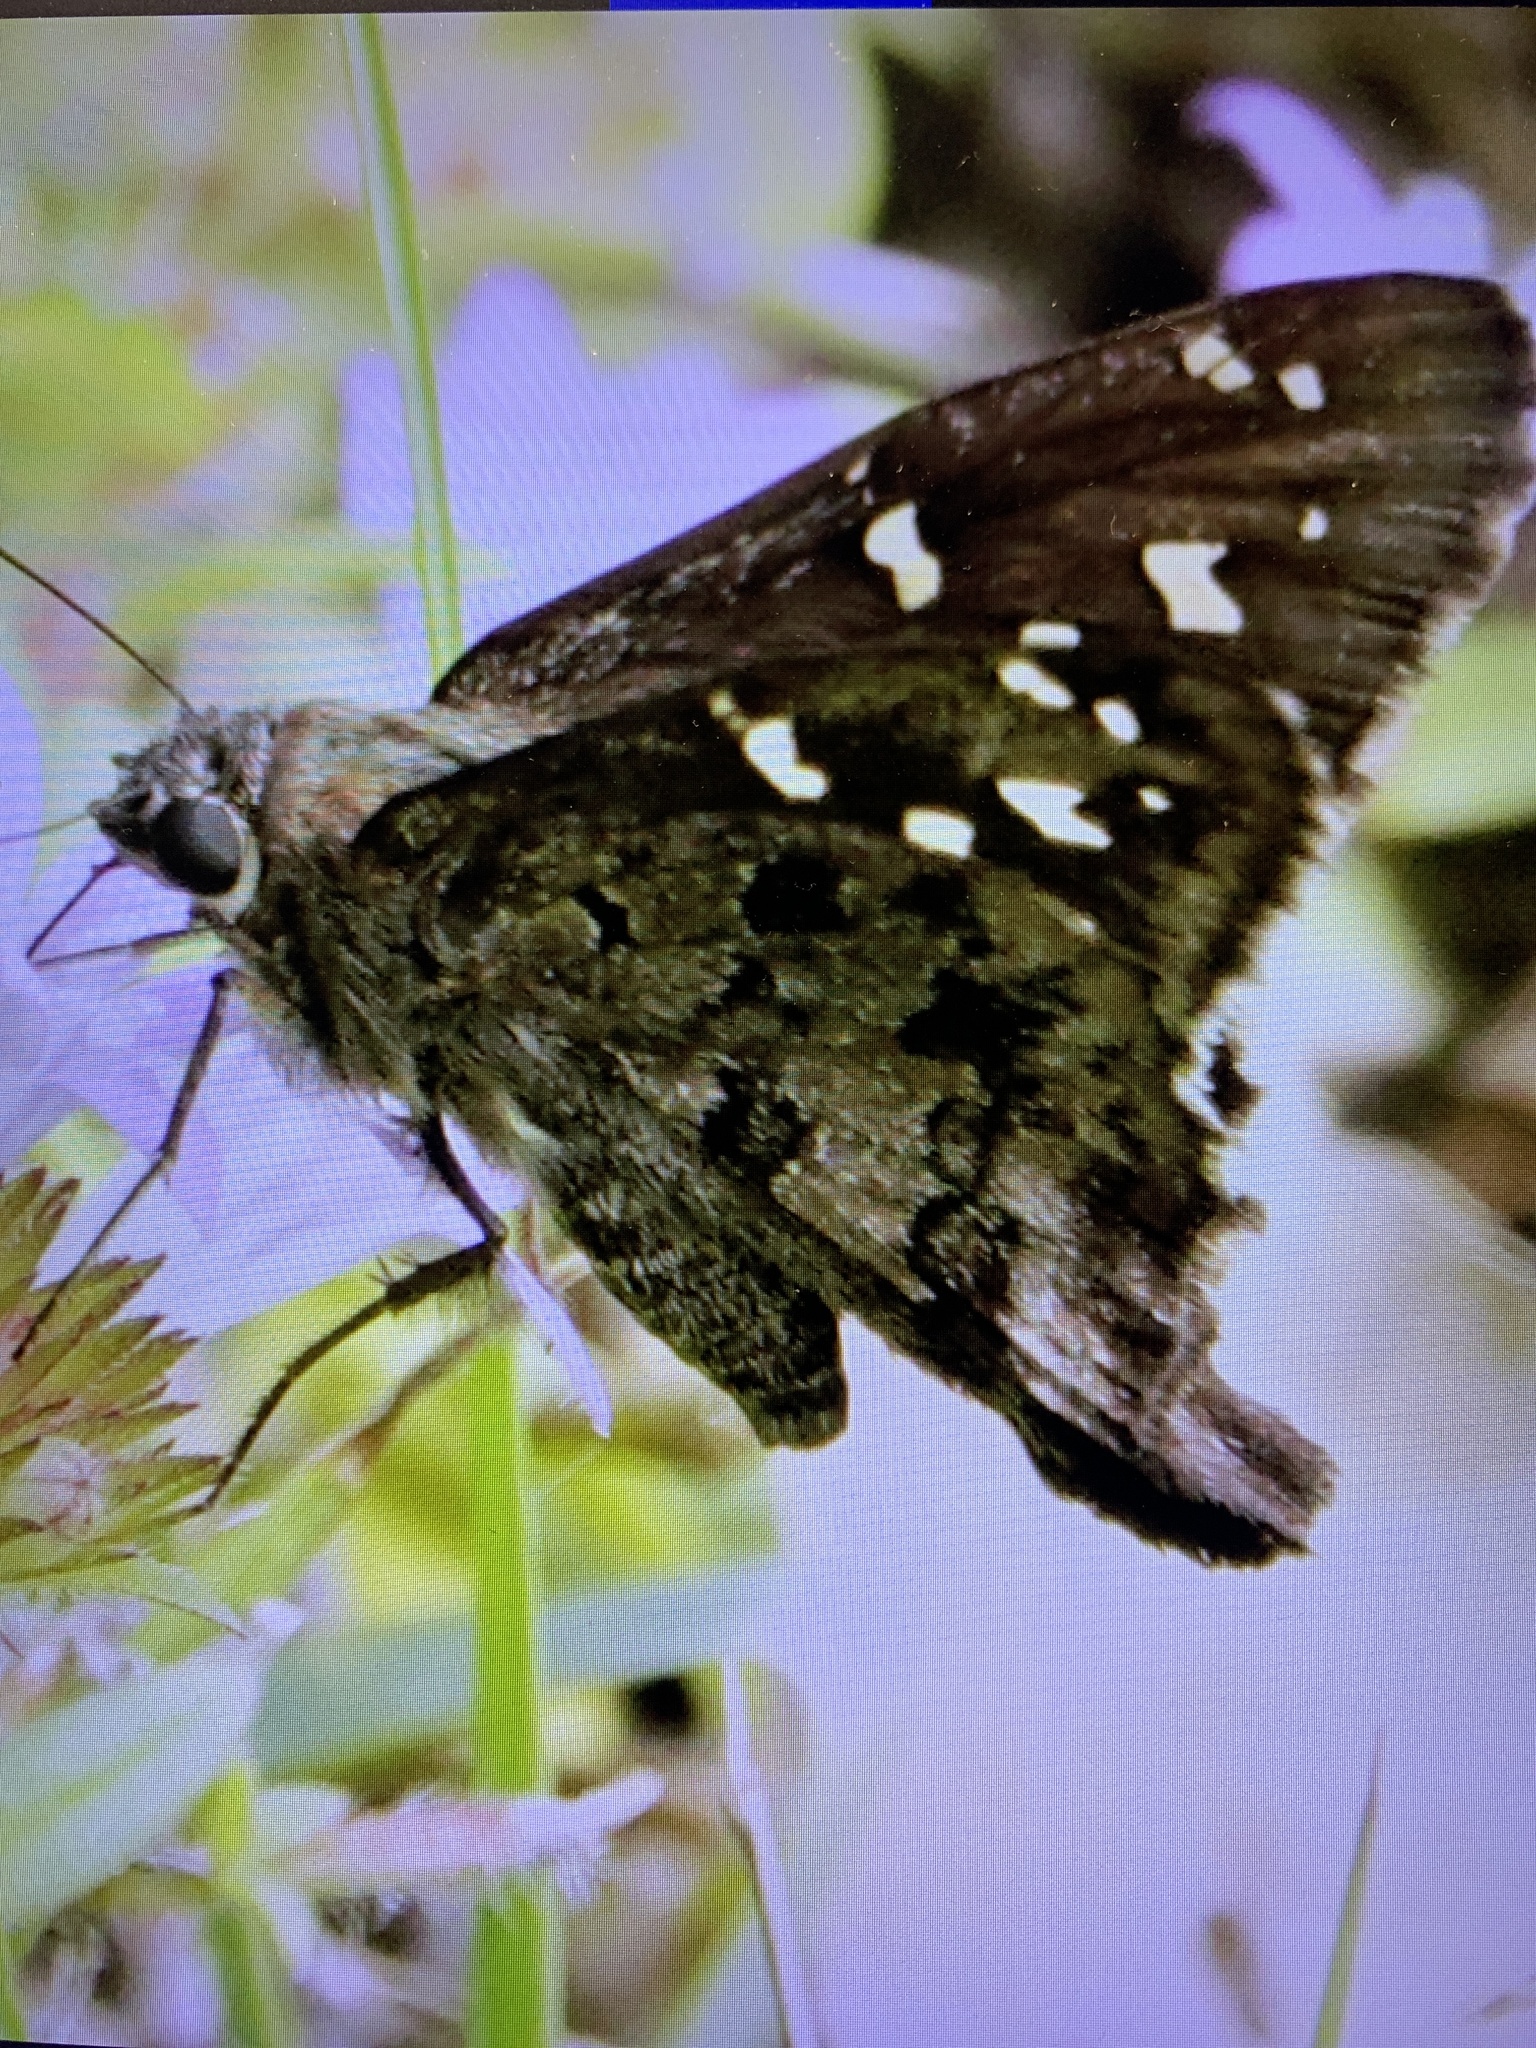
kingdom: Animalia
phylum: Arthropoda
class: Insecta
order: Lepidoptera
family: Hesperiidae
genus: Thorybes
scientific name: Thorybes
